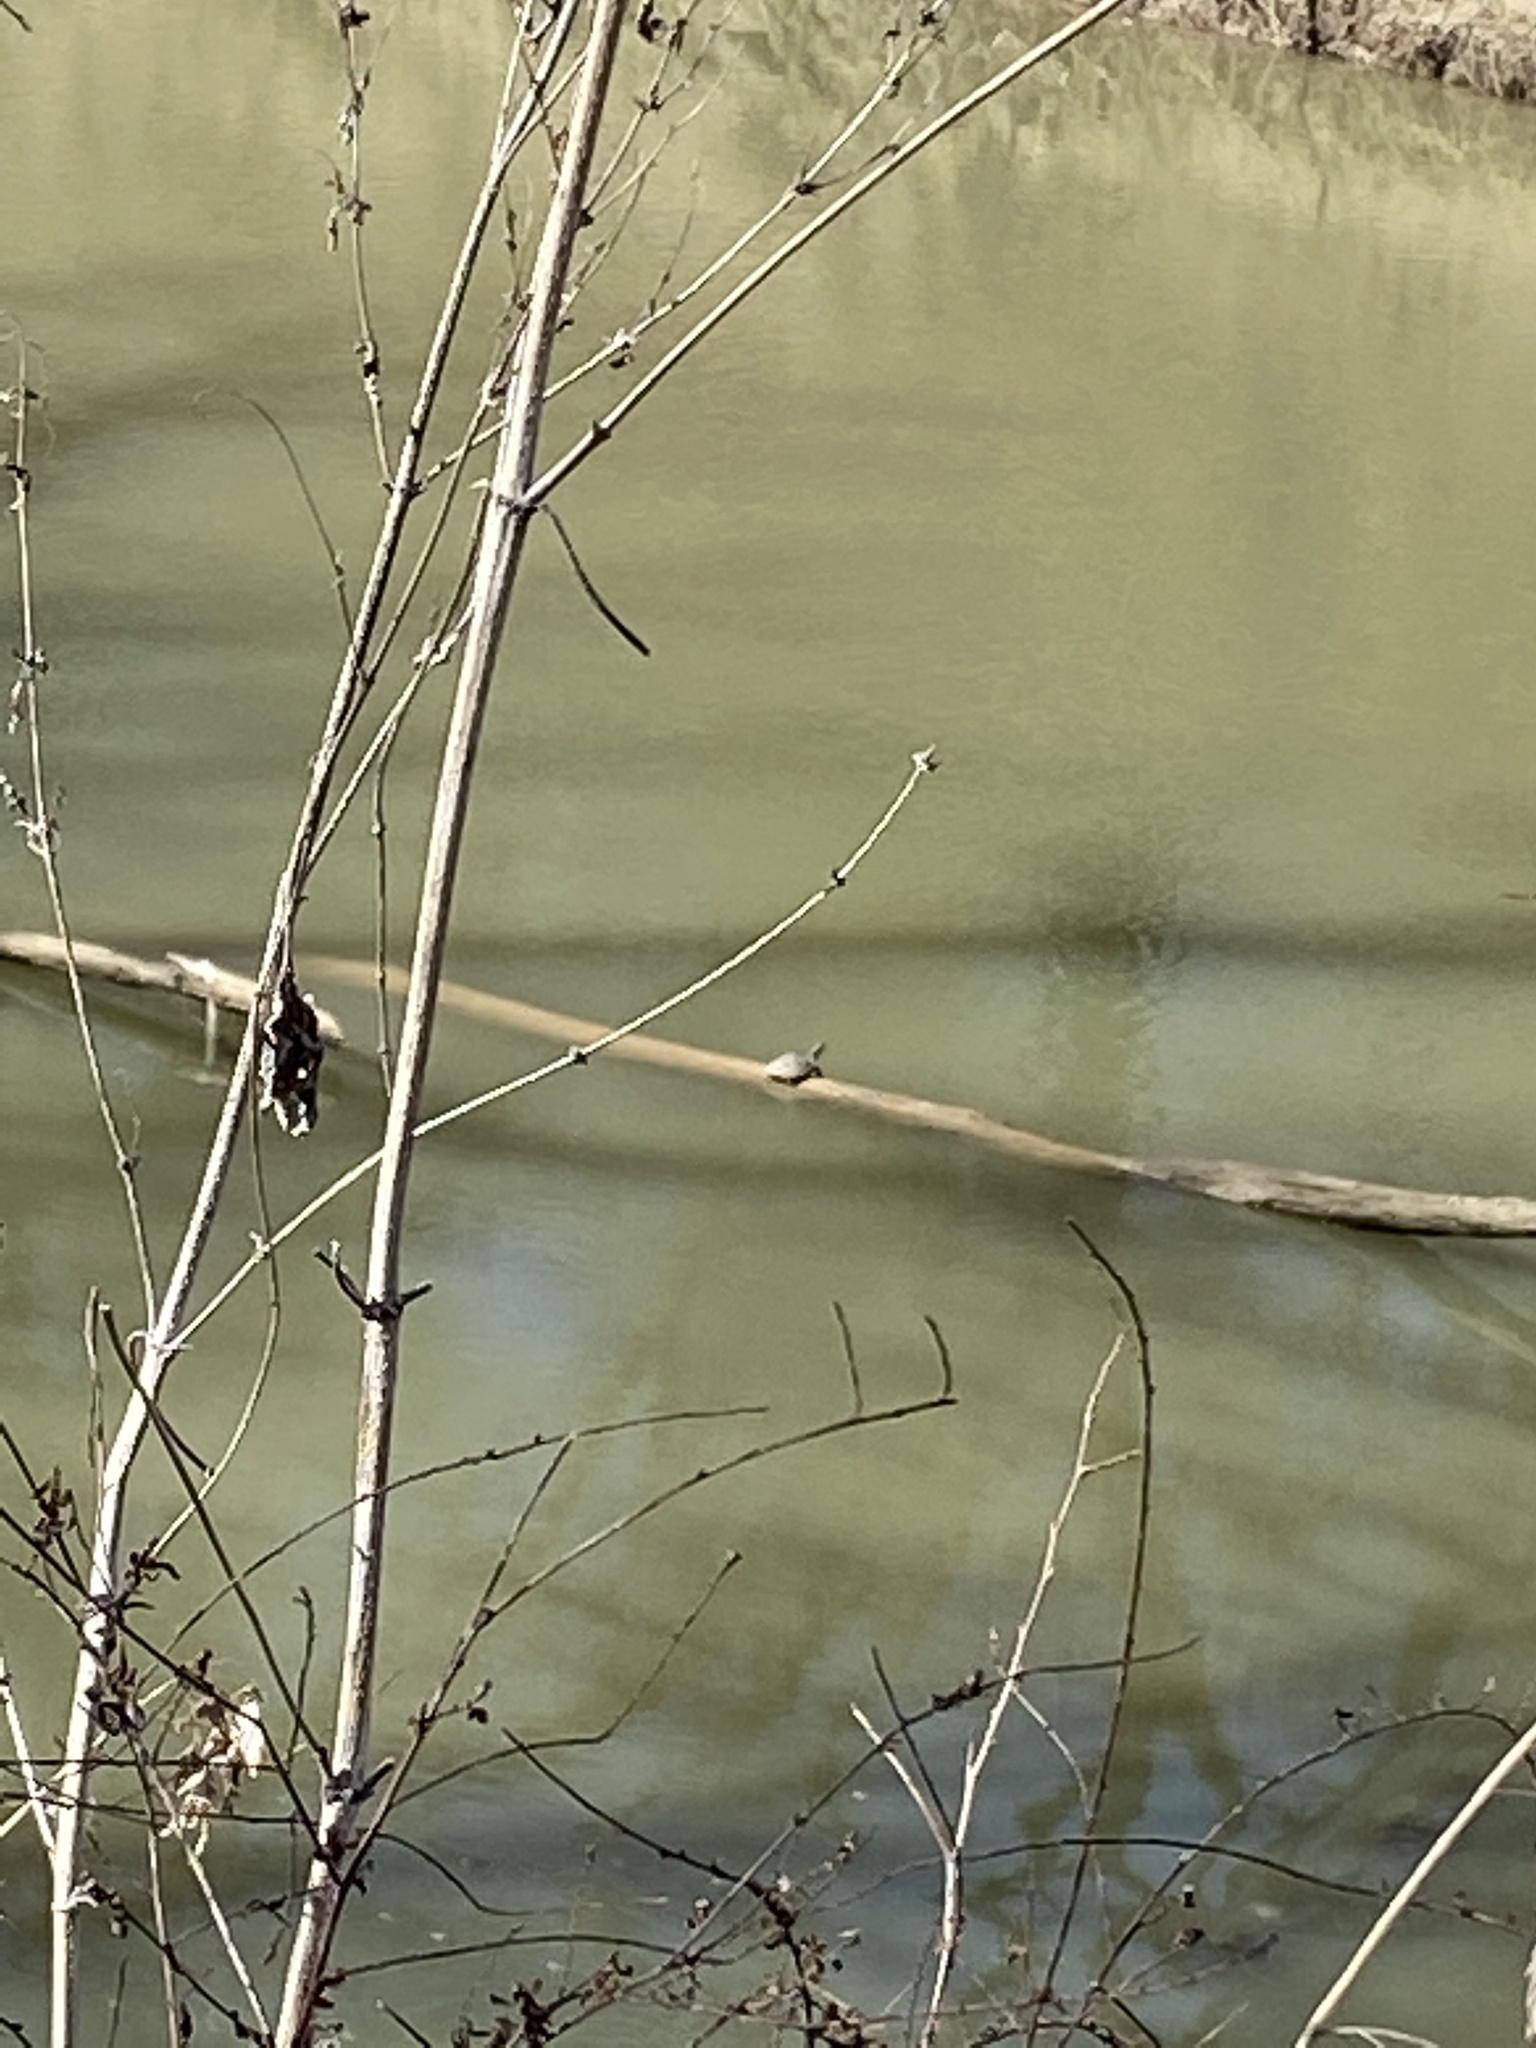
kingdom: Animalia
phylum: Chordata
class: Testudines
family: Emydidae
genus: Trachemys
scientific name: Trachemys scripta
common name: Slider
